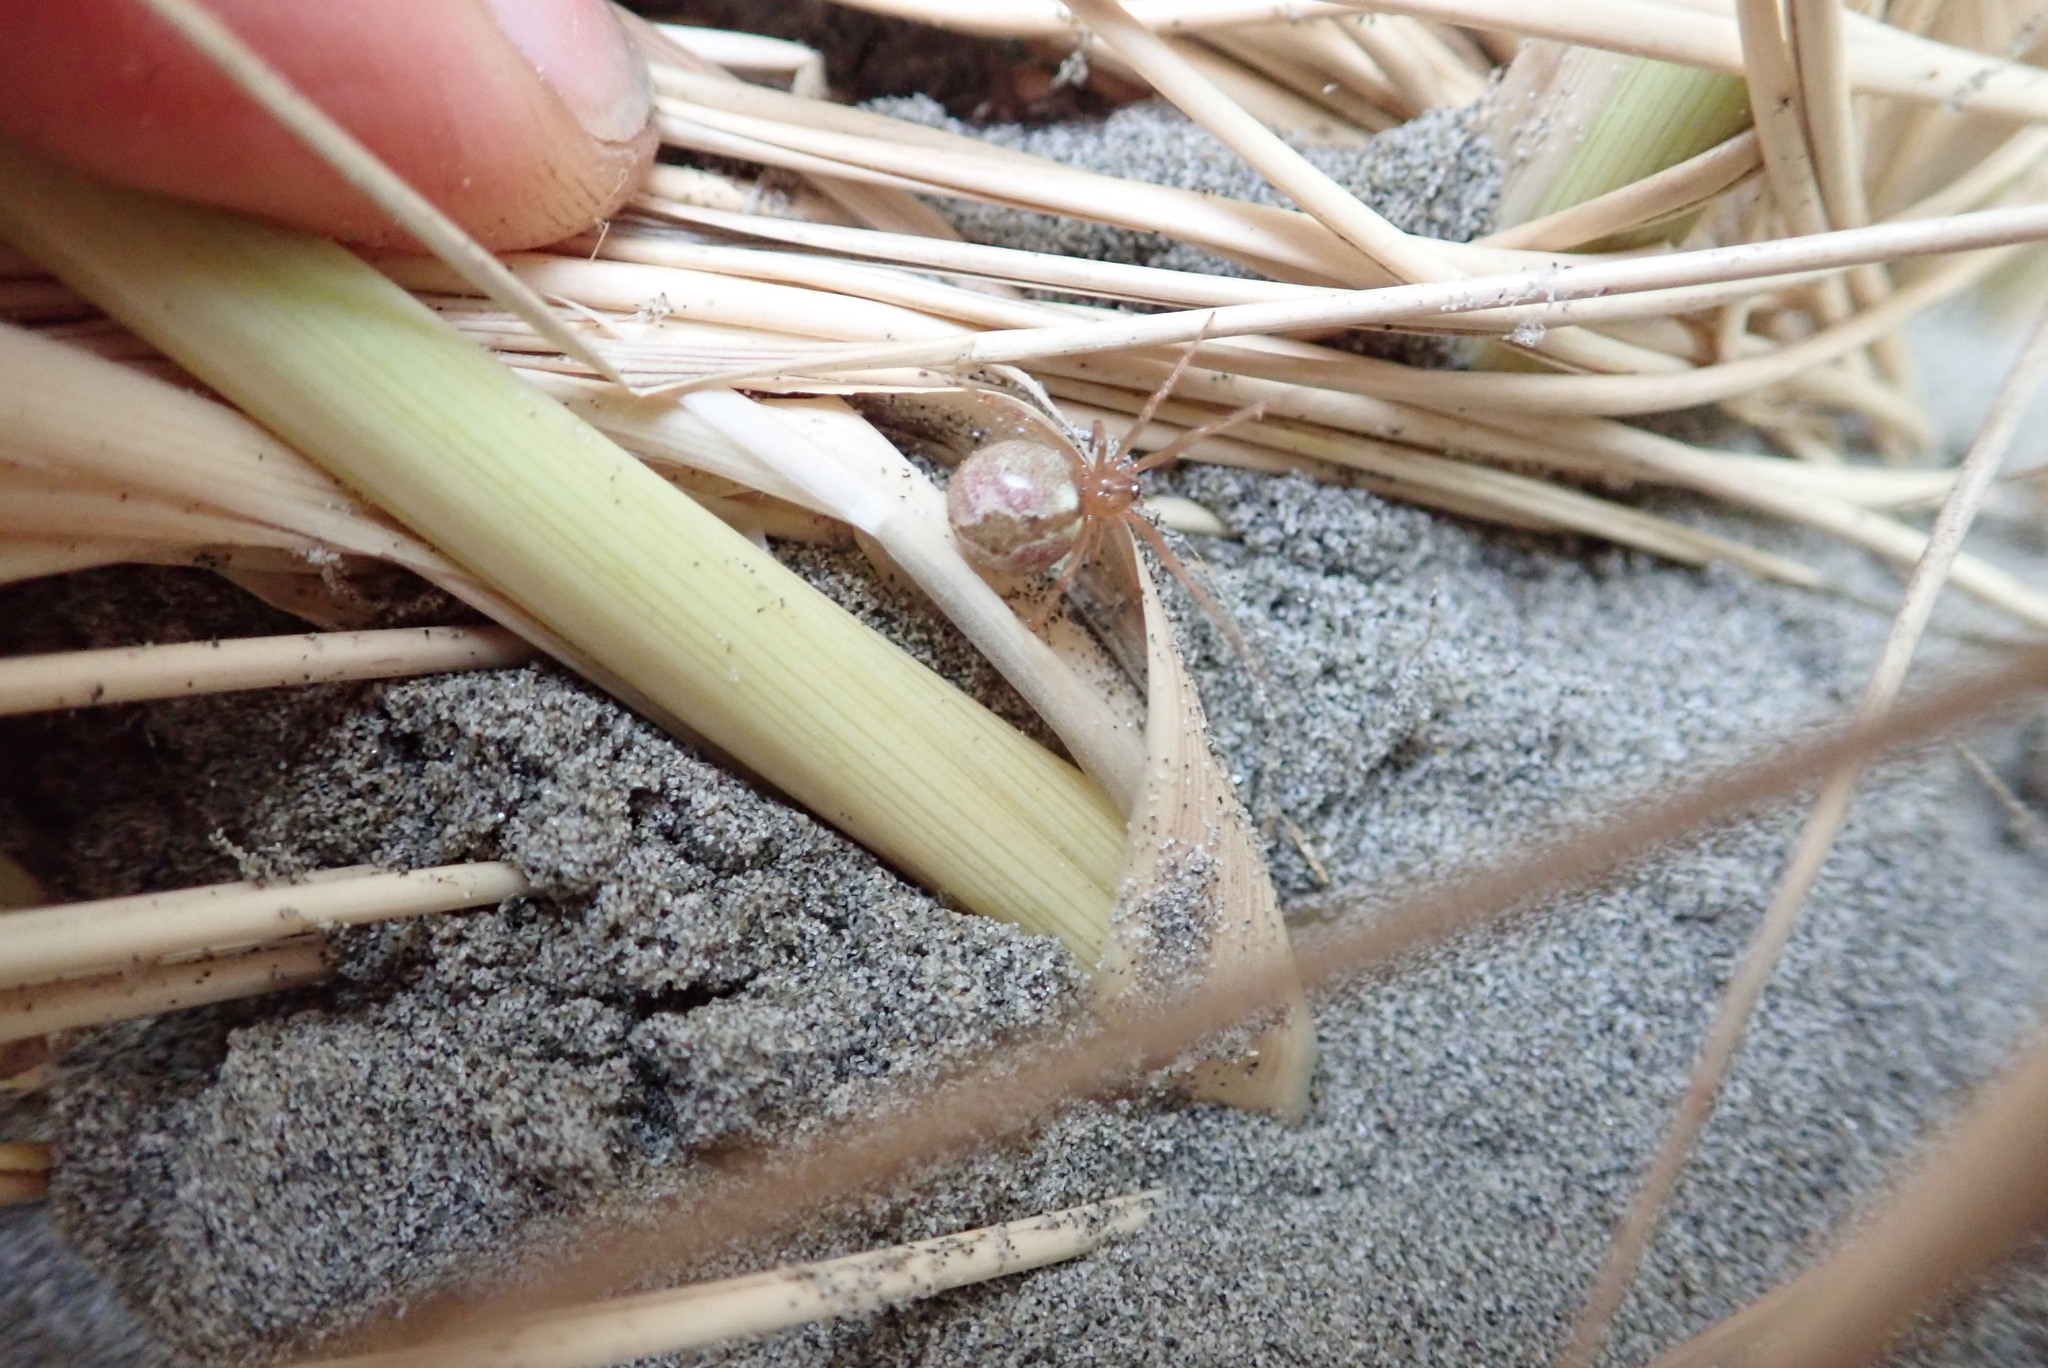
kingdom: Animalia
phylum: Arthropoda
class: Arachnida
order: Araneae
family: Theridiidae
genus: Cryptachaea
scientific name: Cryptachaea veruculata
